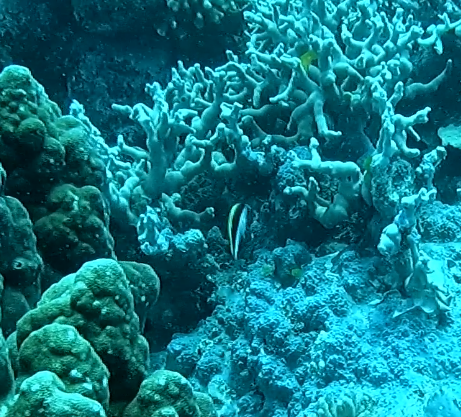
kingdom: Animalia
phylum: Chordata
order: Perciformes
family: Cirrhitidae
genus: Paracirrhites
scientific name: Paracirrhites forsteri
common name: Freckled hawkfish
